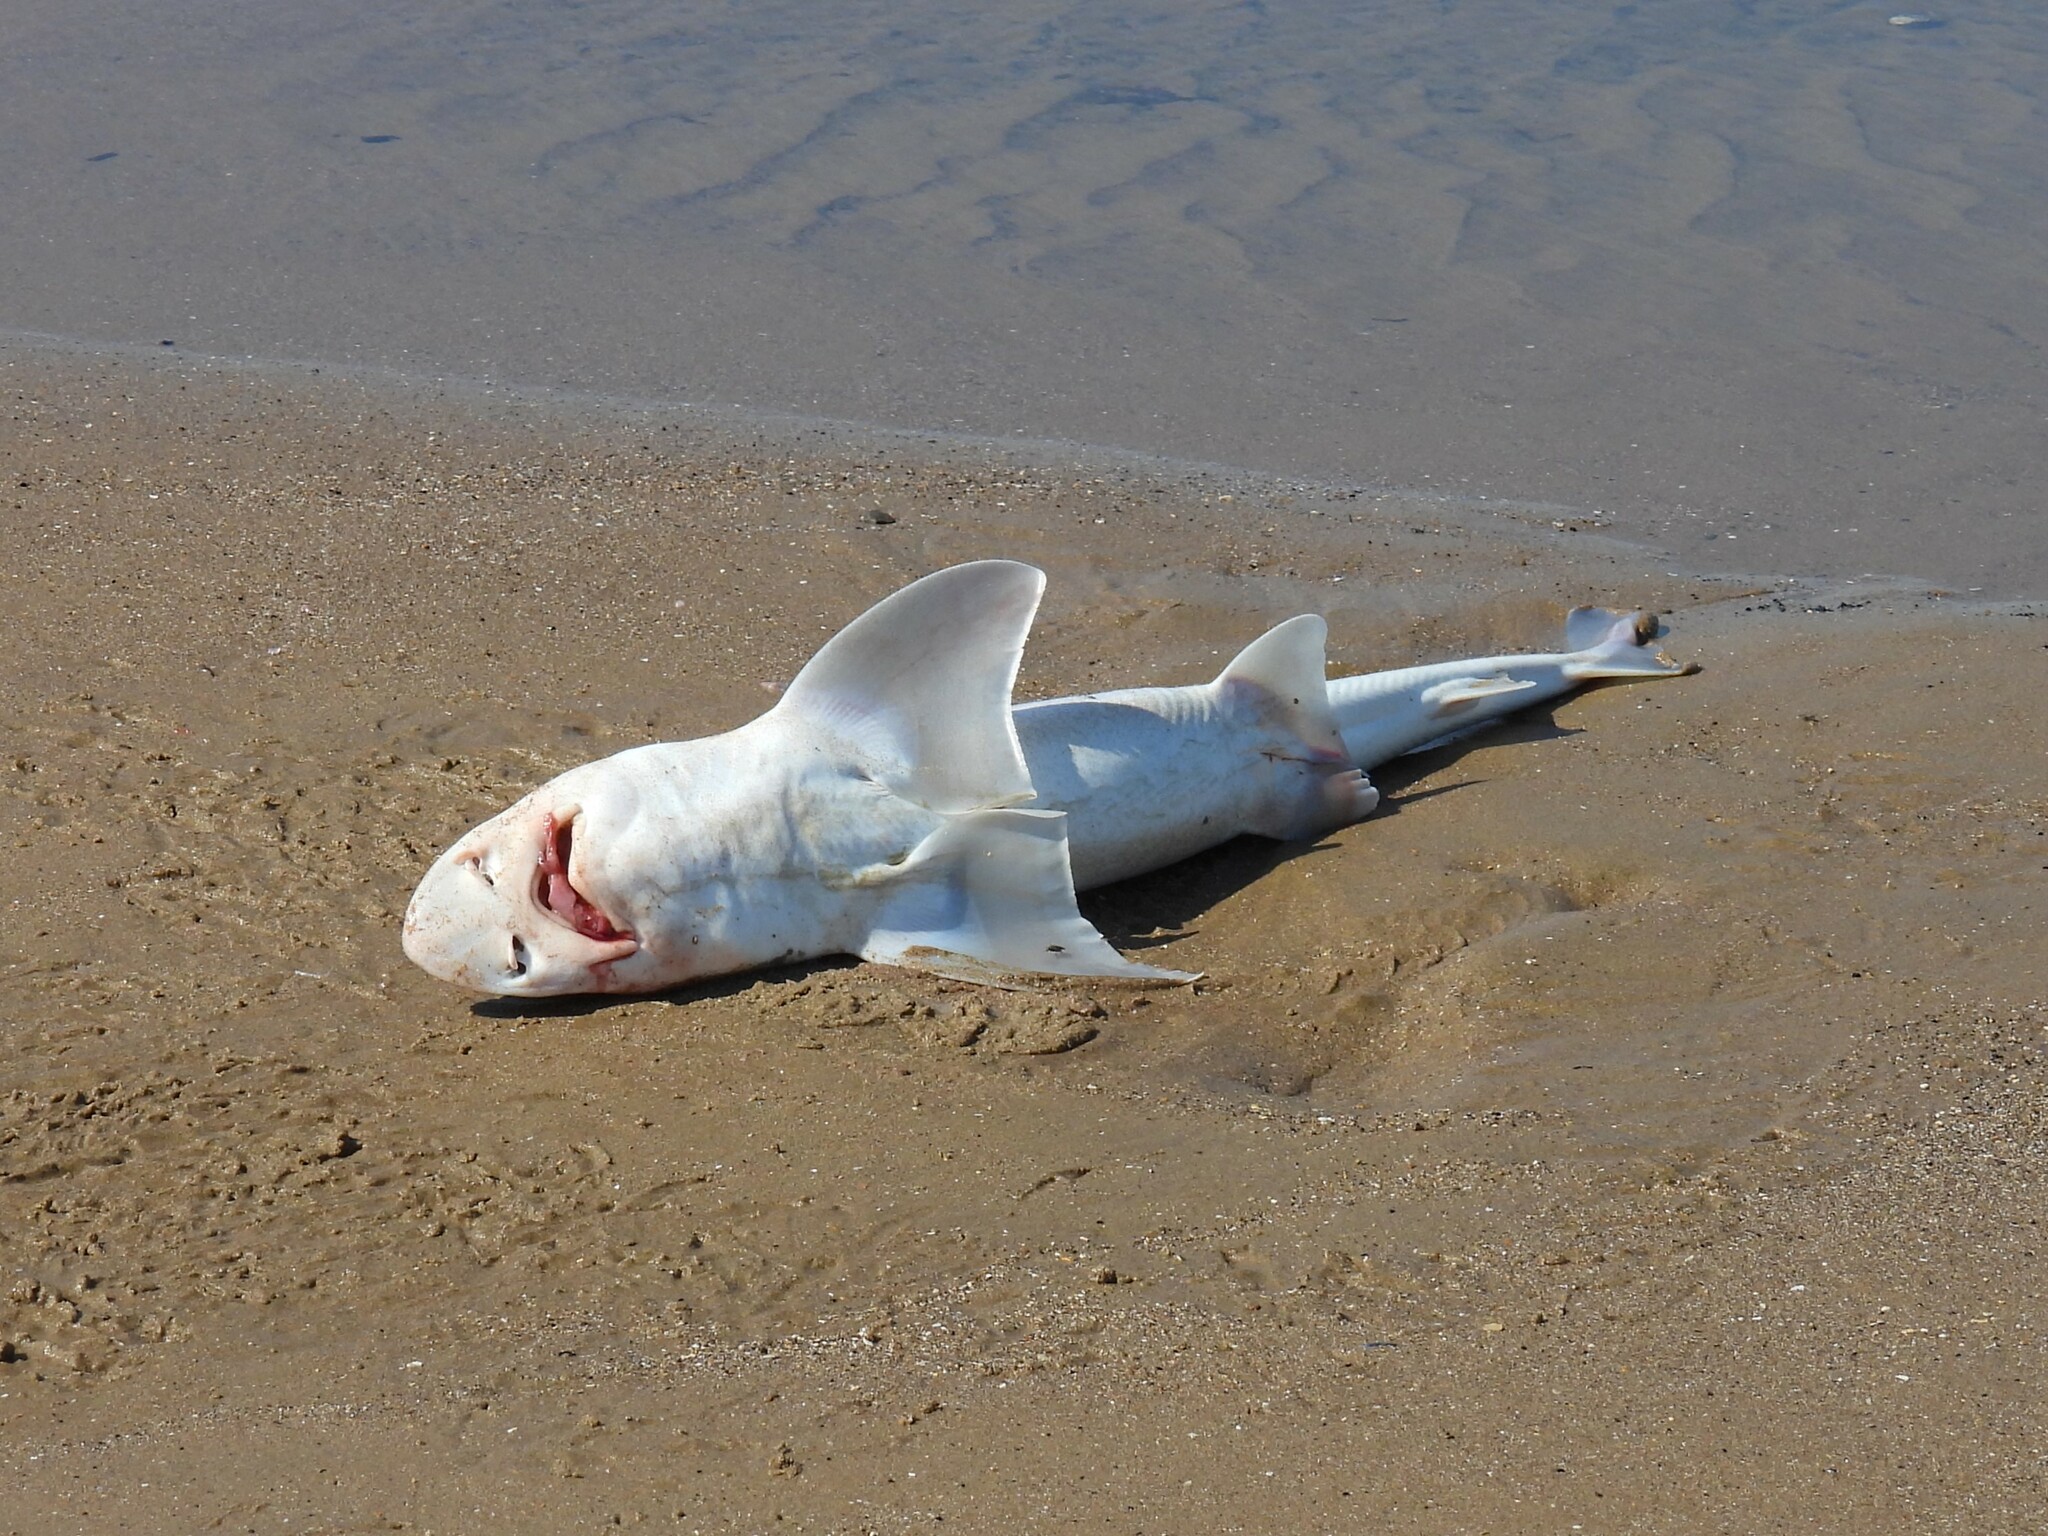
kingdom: Animalia
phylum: Chordata
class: Elasmobranchii
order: Carcharhiniformes
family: Triakidae
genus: Mustelus
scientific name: Mustelus asterias
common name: Starry smooth hound
